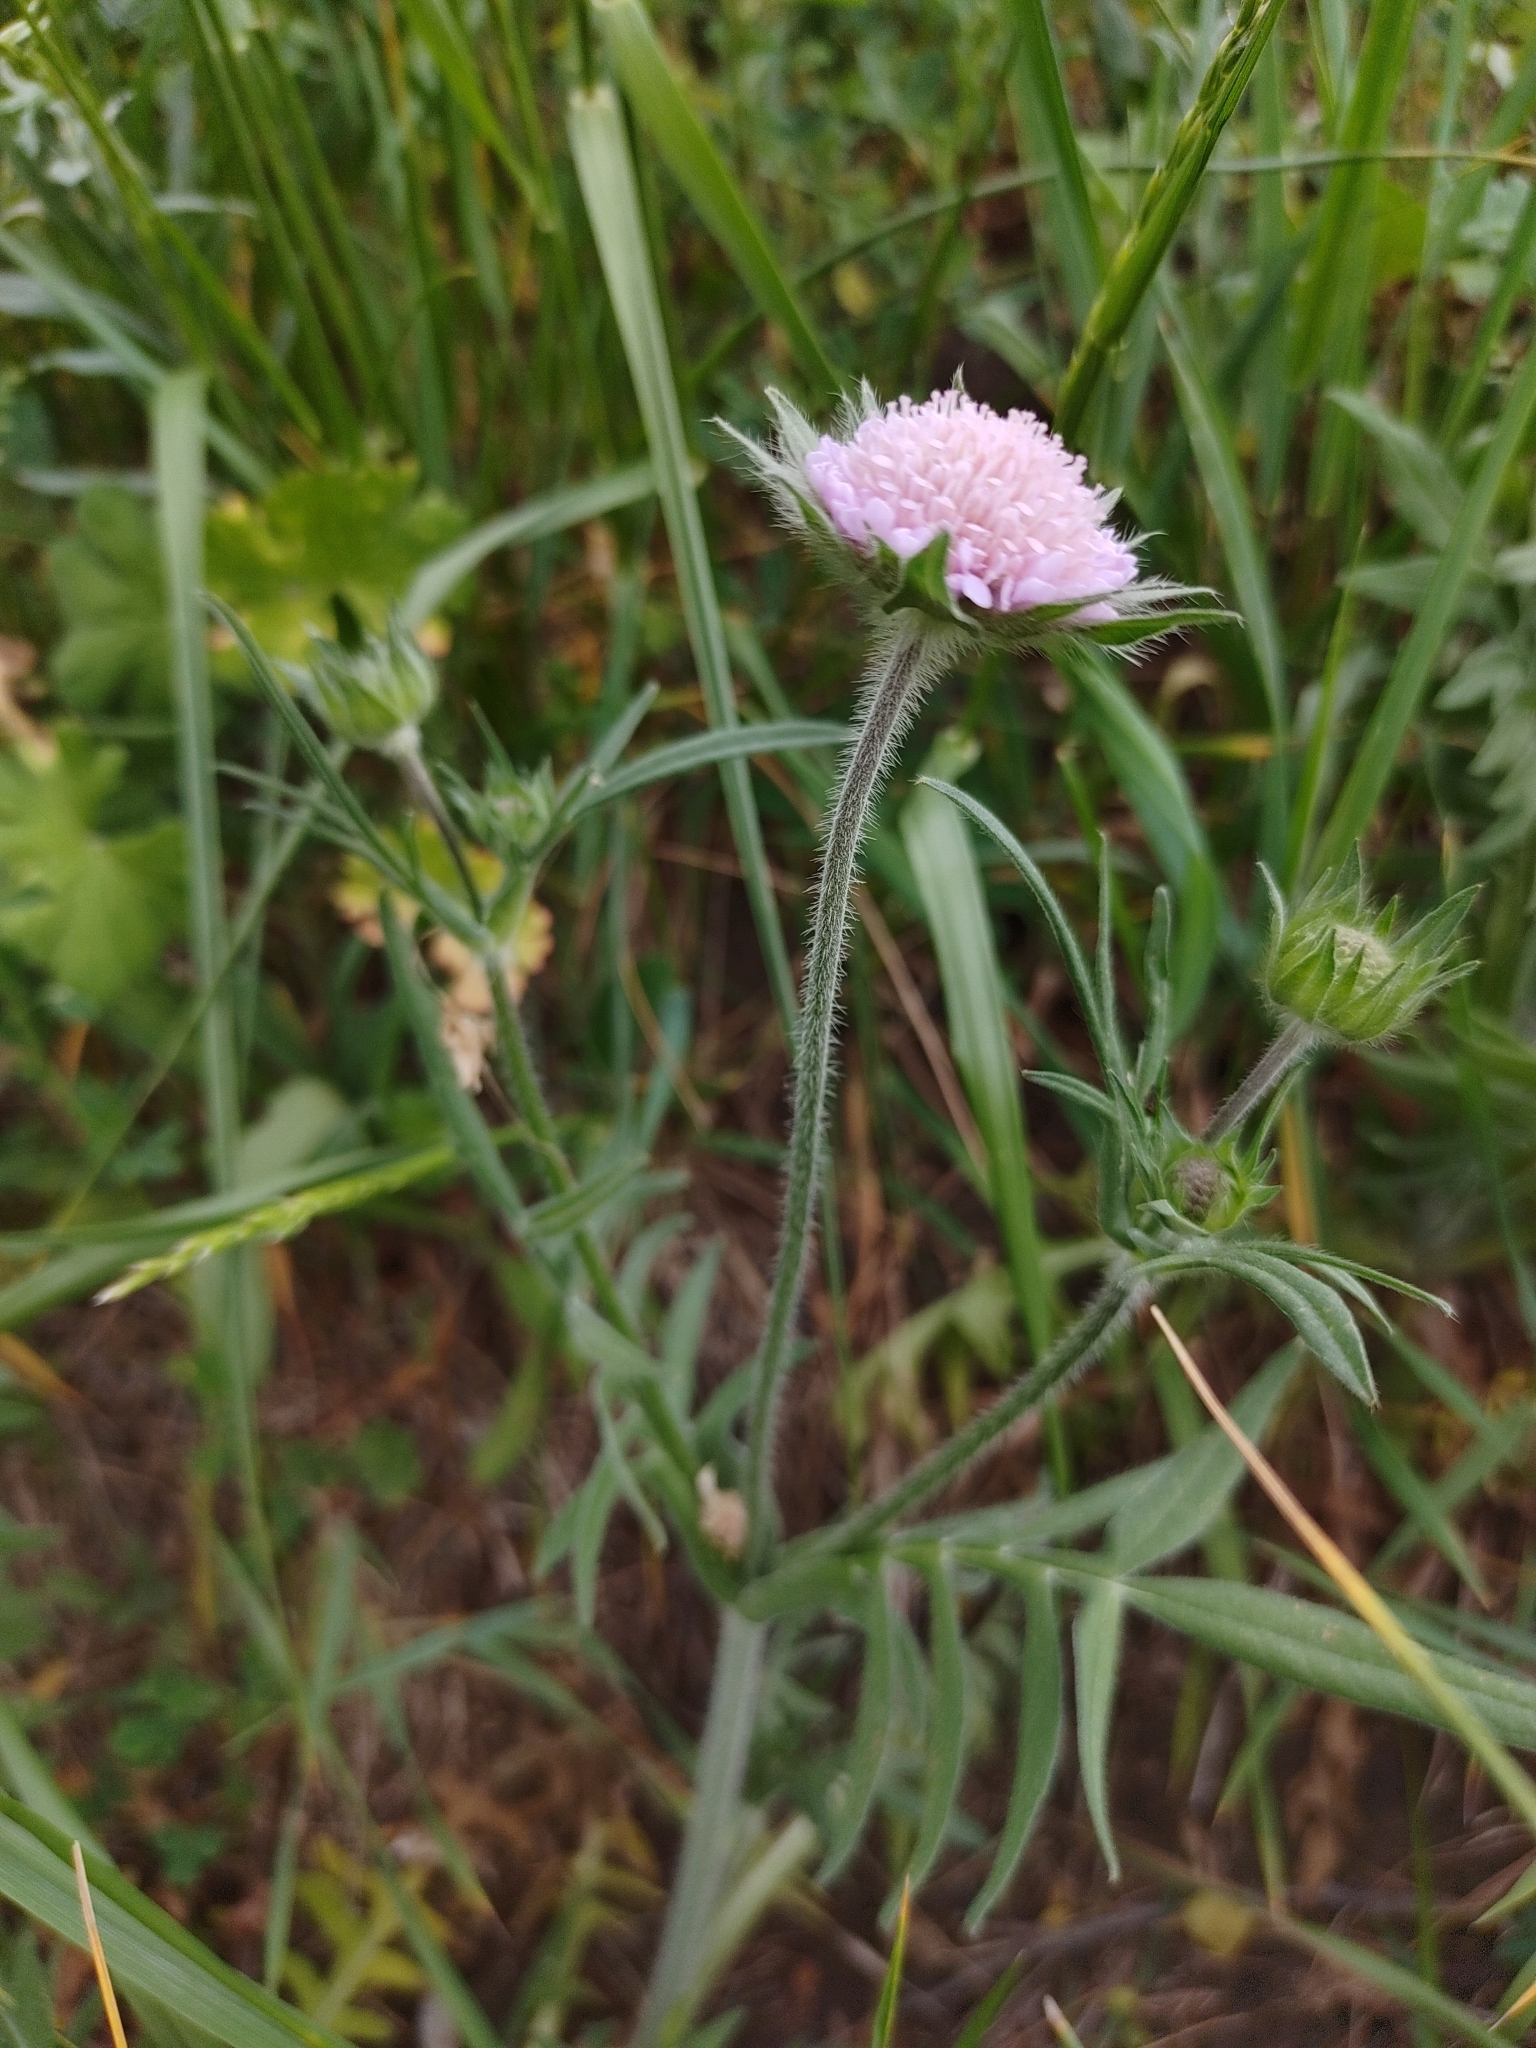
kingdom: Plantae
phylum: Tracheophyta
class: Magnoliopsida
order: Dipsacales
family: Caprifoliaceae
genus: Knautia
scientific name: Knautia arvensis
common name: Field scabiosa
